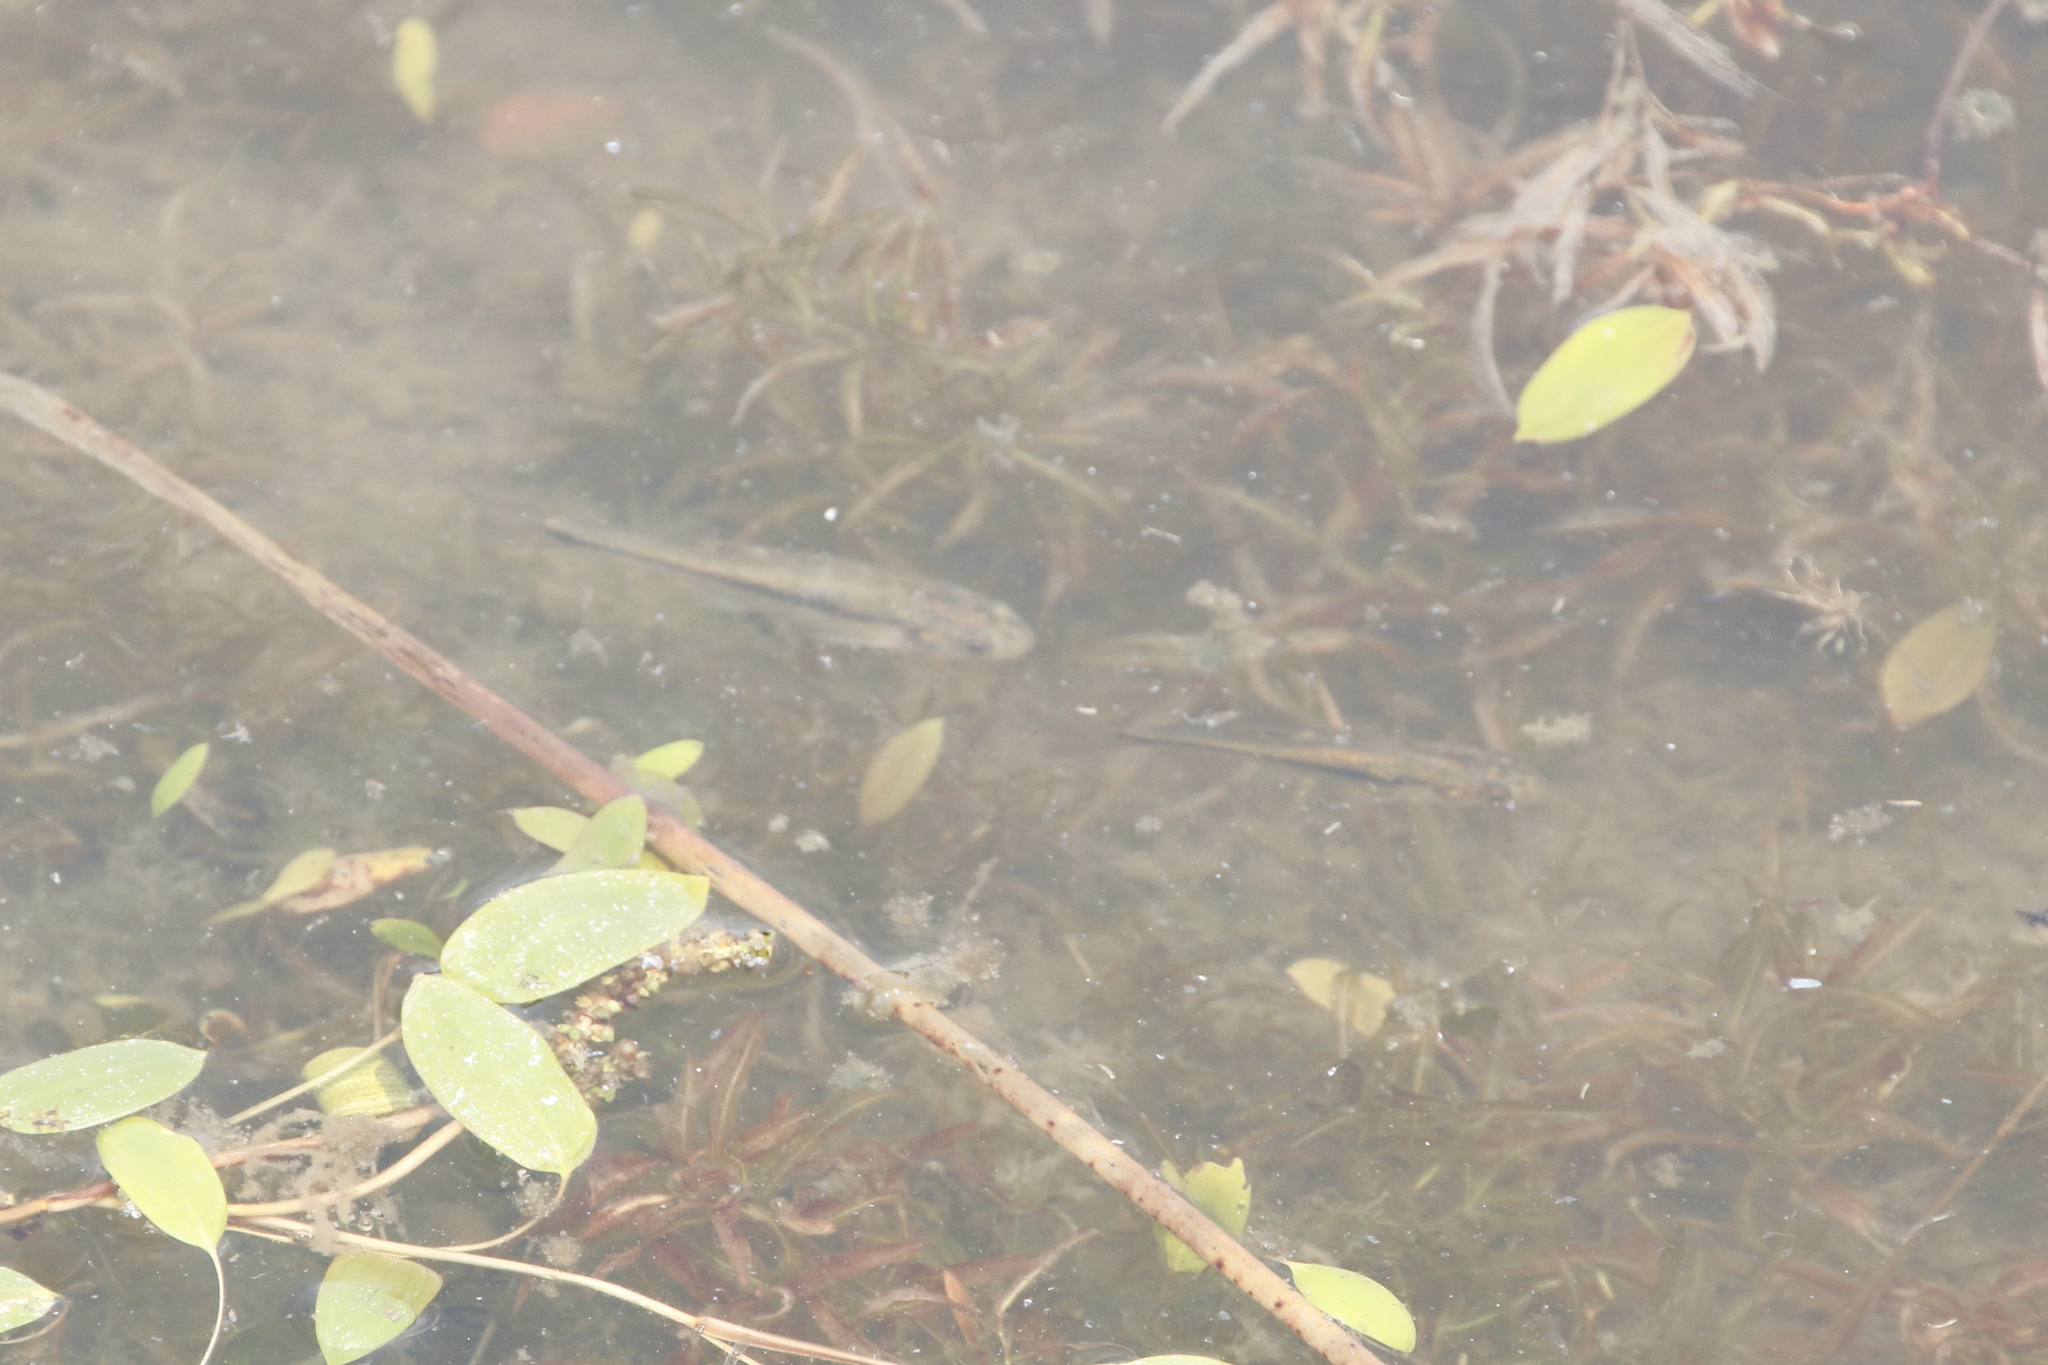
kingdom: Animalia
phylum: Chordata
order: Cypriniformes
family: Cyprinidae
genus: Pimephales
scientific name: Pimephales promelas
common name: Fathead minnow
